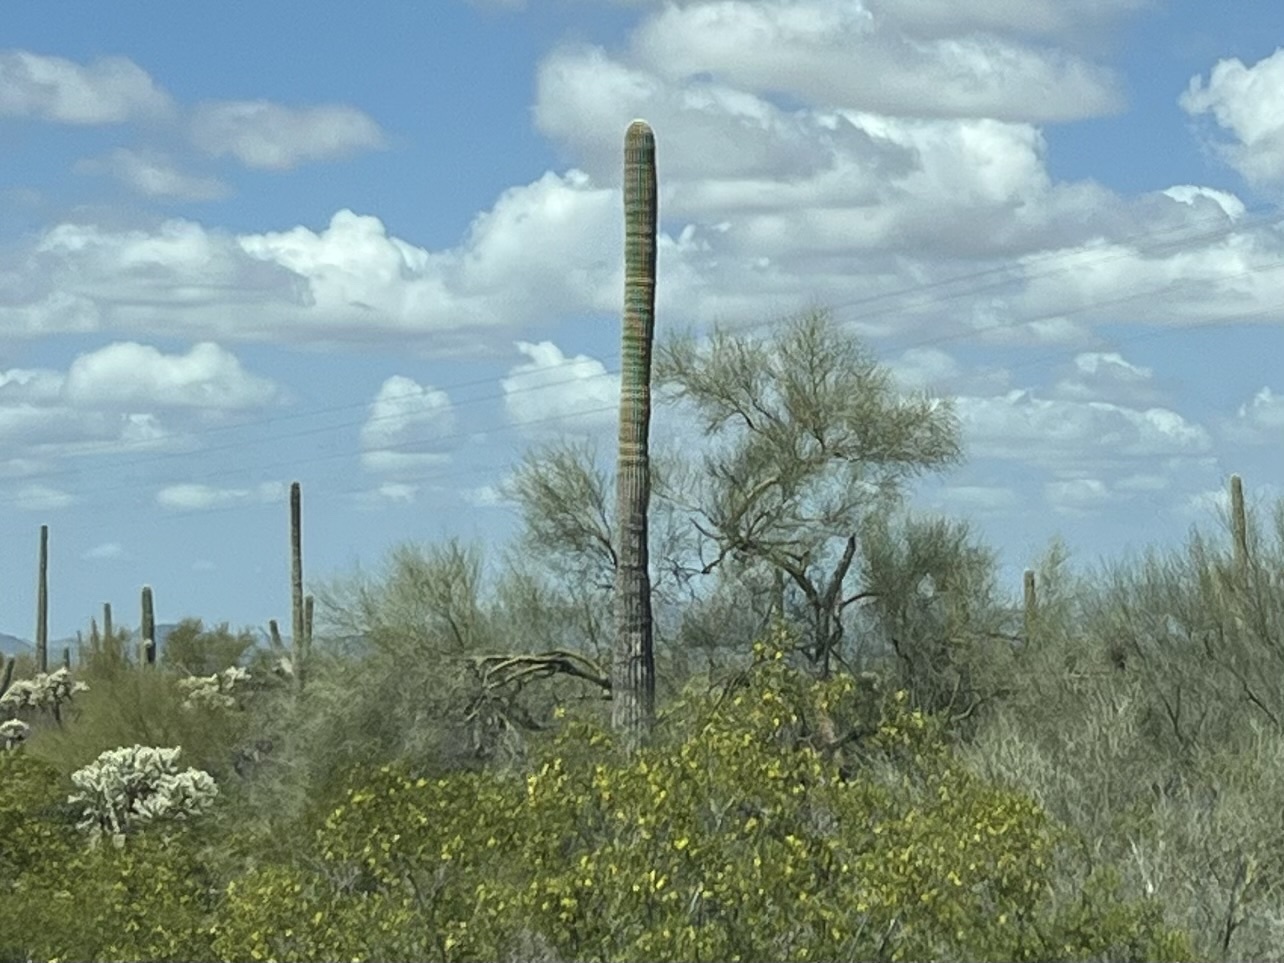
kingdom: Plantae
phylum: Tracheophyta
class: Magnoliopsida
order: Caryophyllales
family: Cactaceae
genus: Carnegiea
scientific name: Carnegiea gigantea
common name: Saguaro
